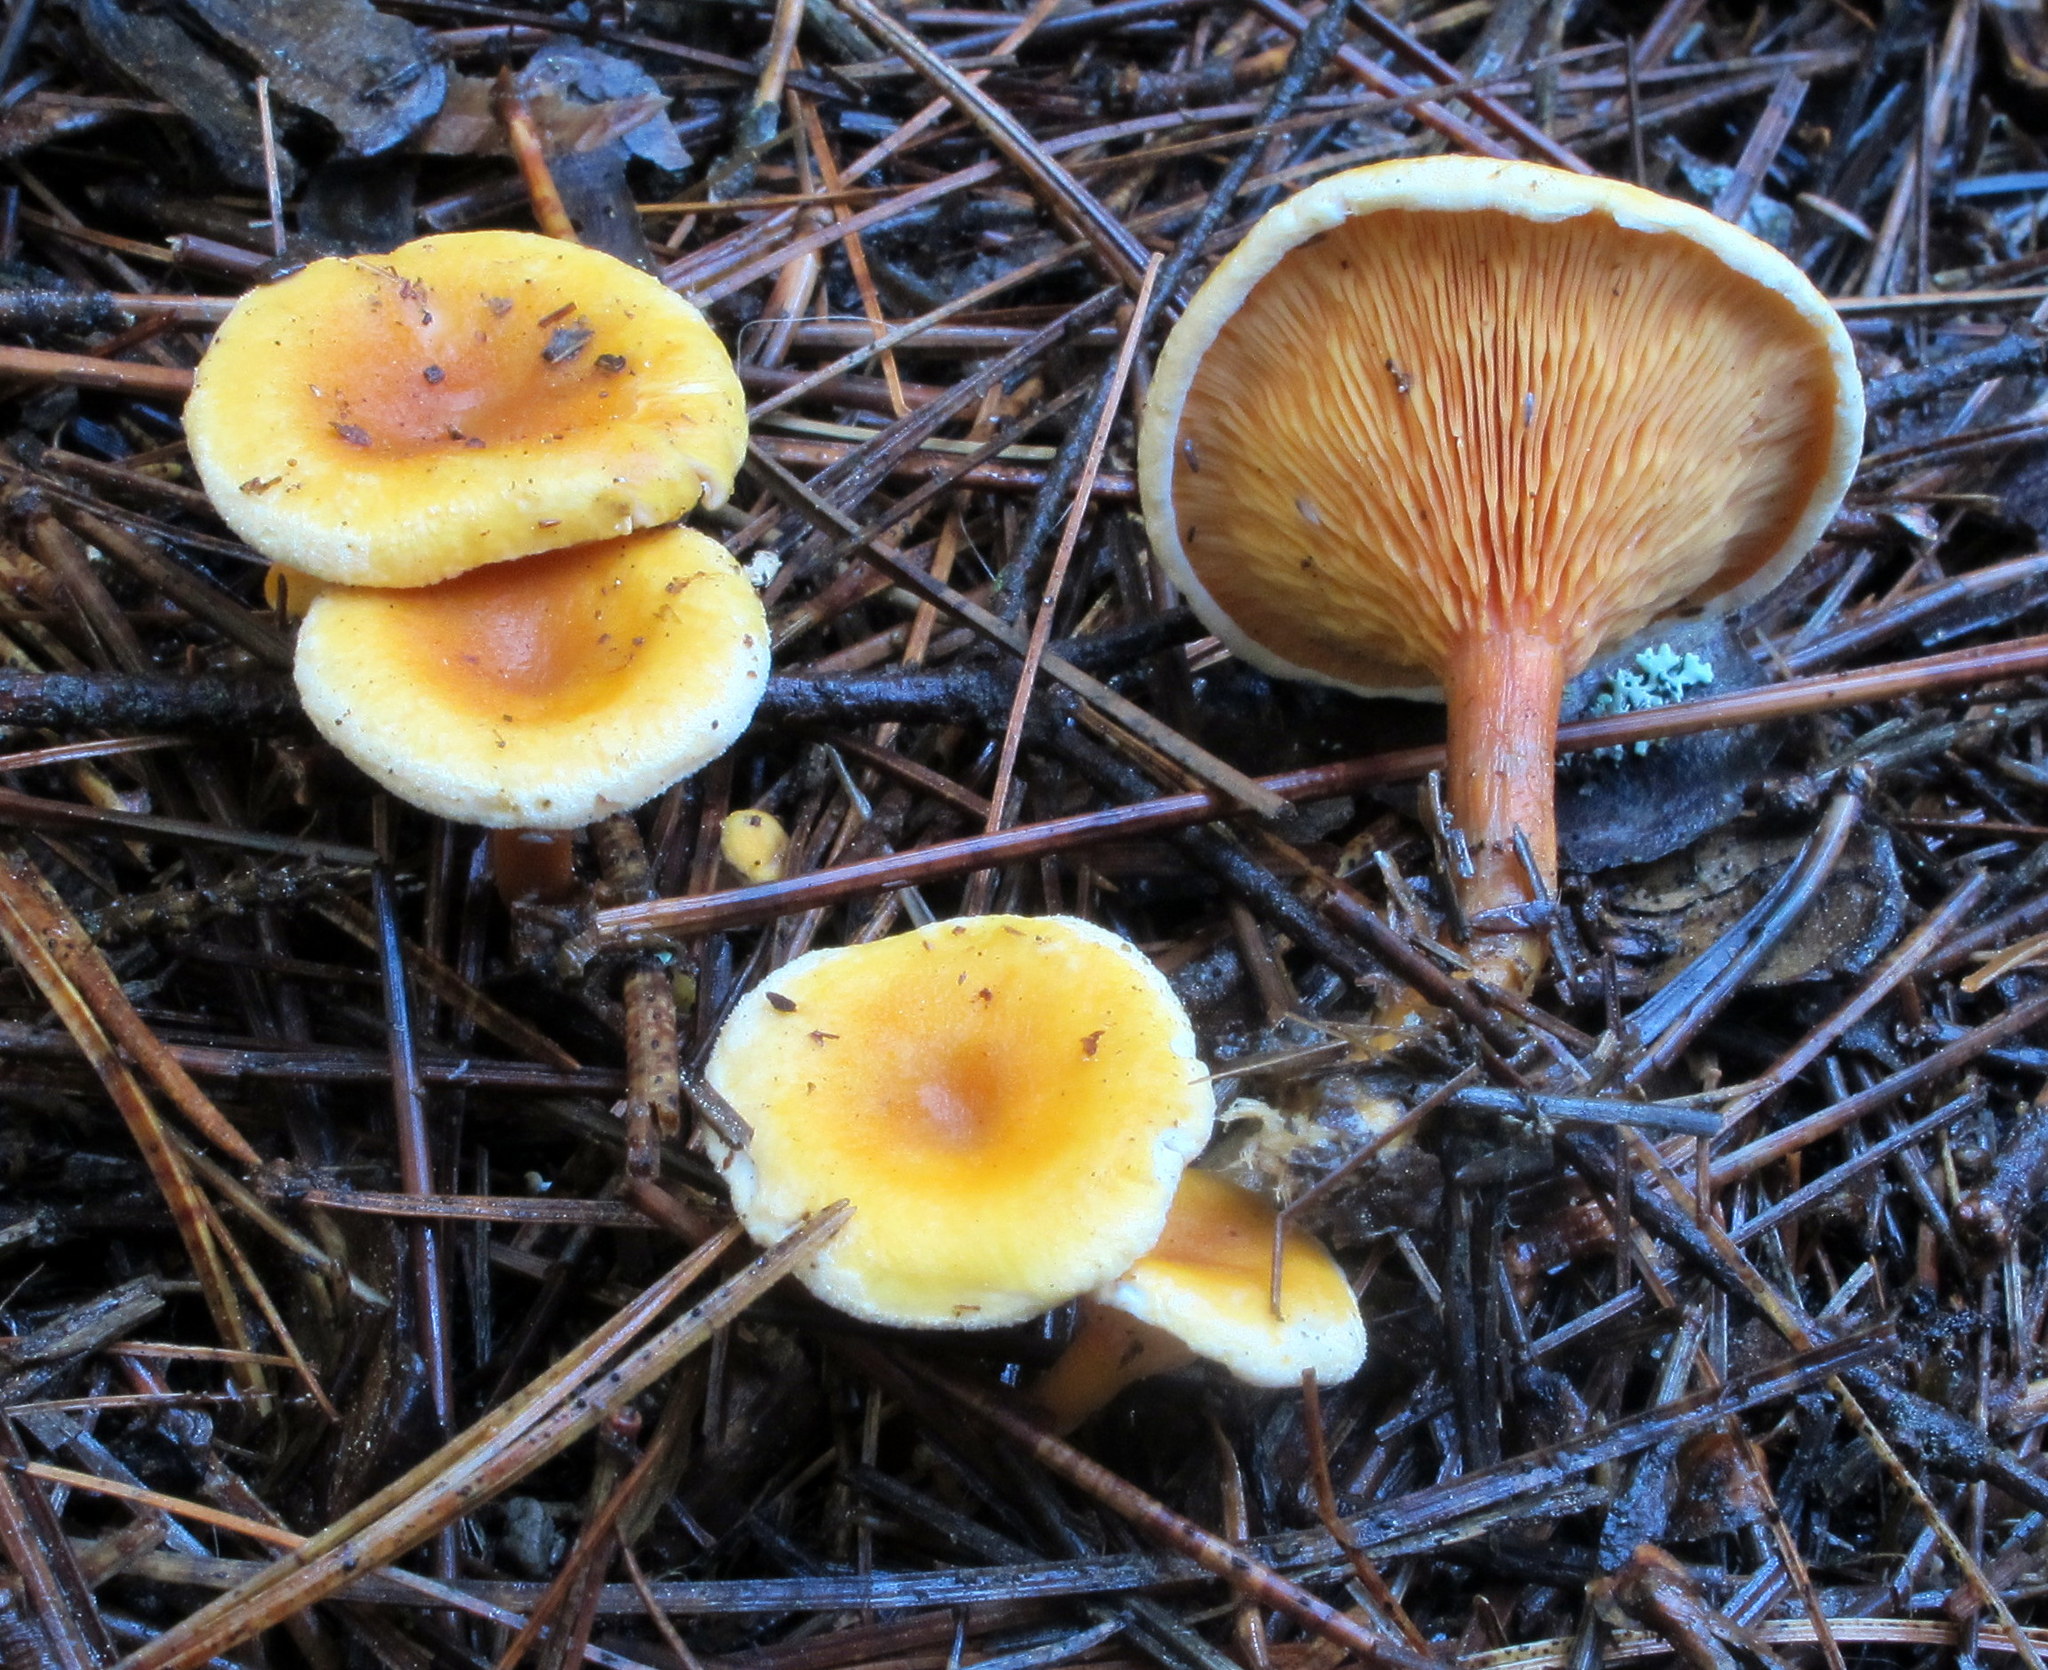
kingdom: Fungi
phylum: Basidiomycota
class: Agaricomycetes
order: Boletales
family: Hygrophoropsidaceae
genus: Hygrophoropsis
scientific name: Hygrophoropsis aurantiaca
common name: False chanterelle
